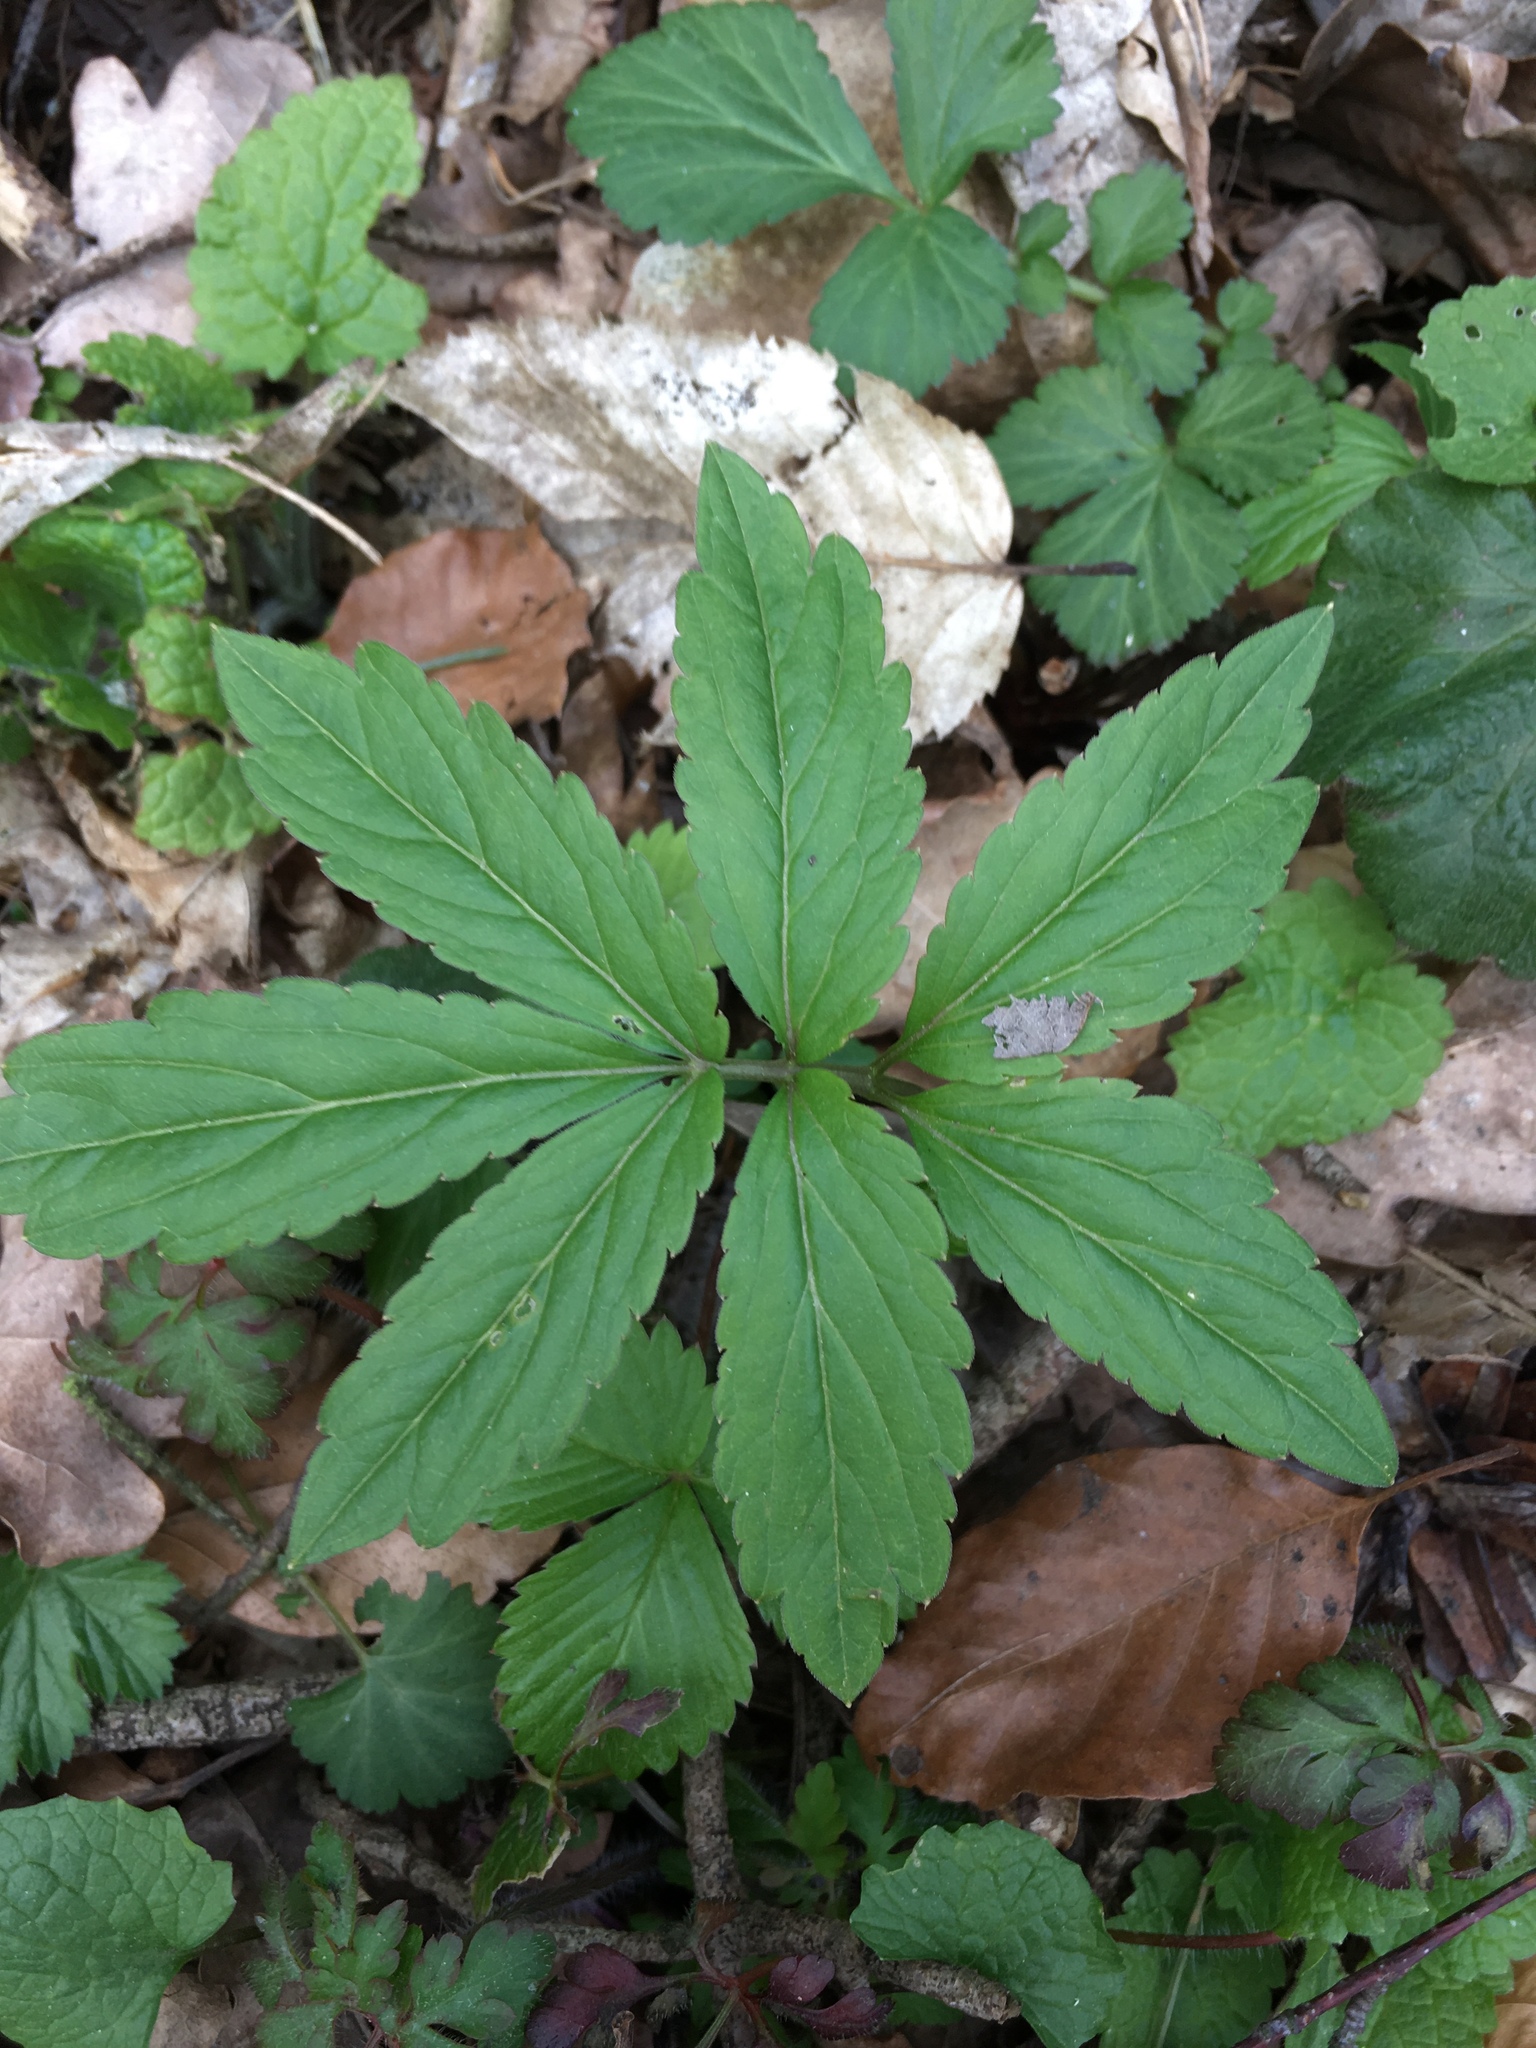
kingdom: Plantae
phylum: Tracheophyta
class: Magnoliopsida
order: Brassicales
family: Brassicaceae
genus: Cardamine
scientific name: Cardamine bulbifera
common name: Coralroot bittercress
